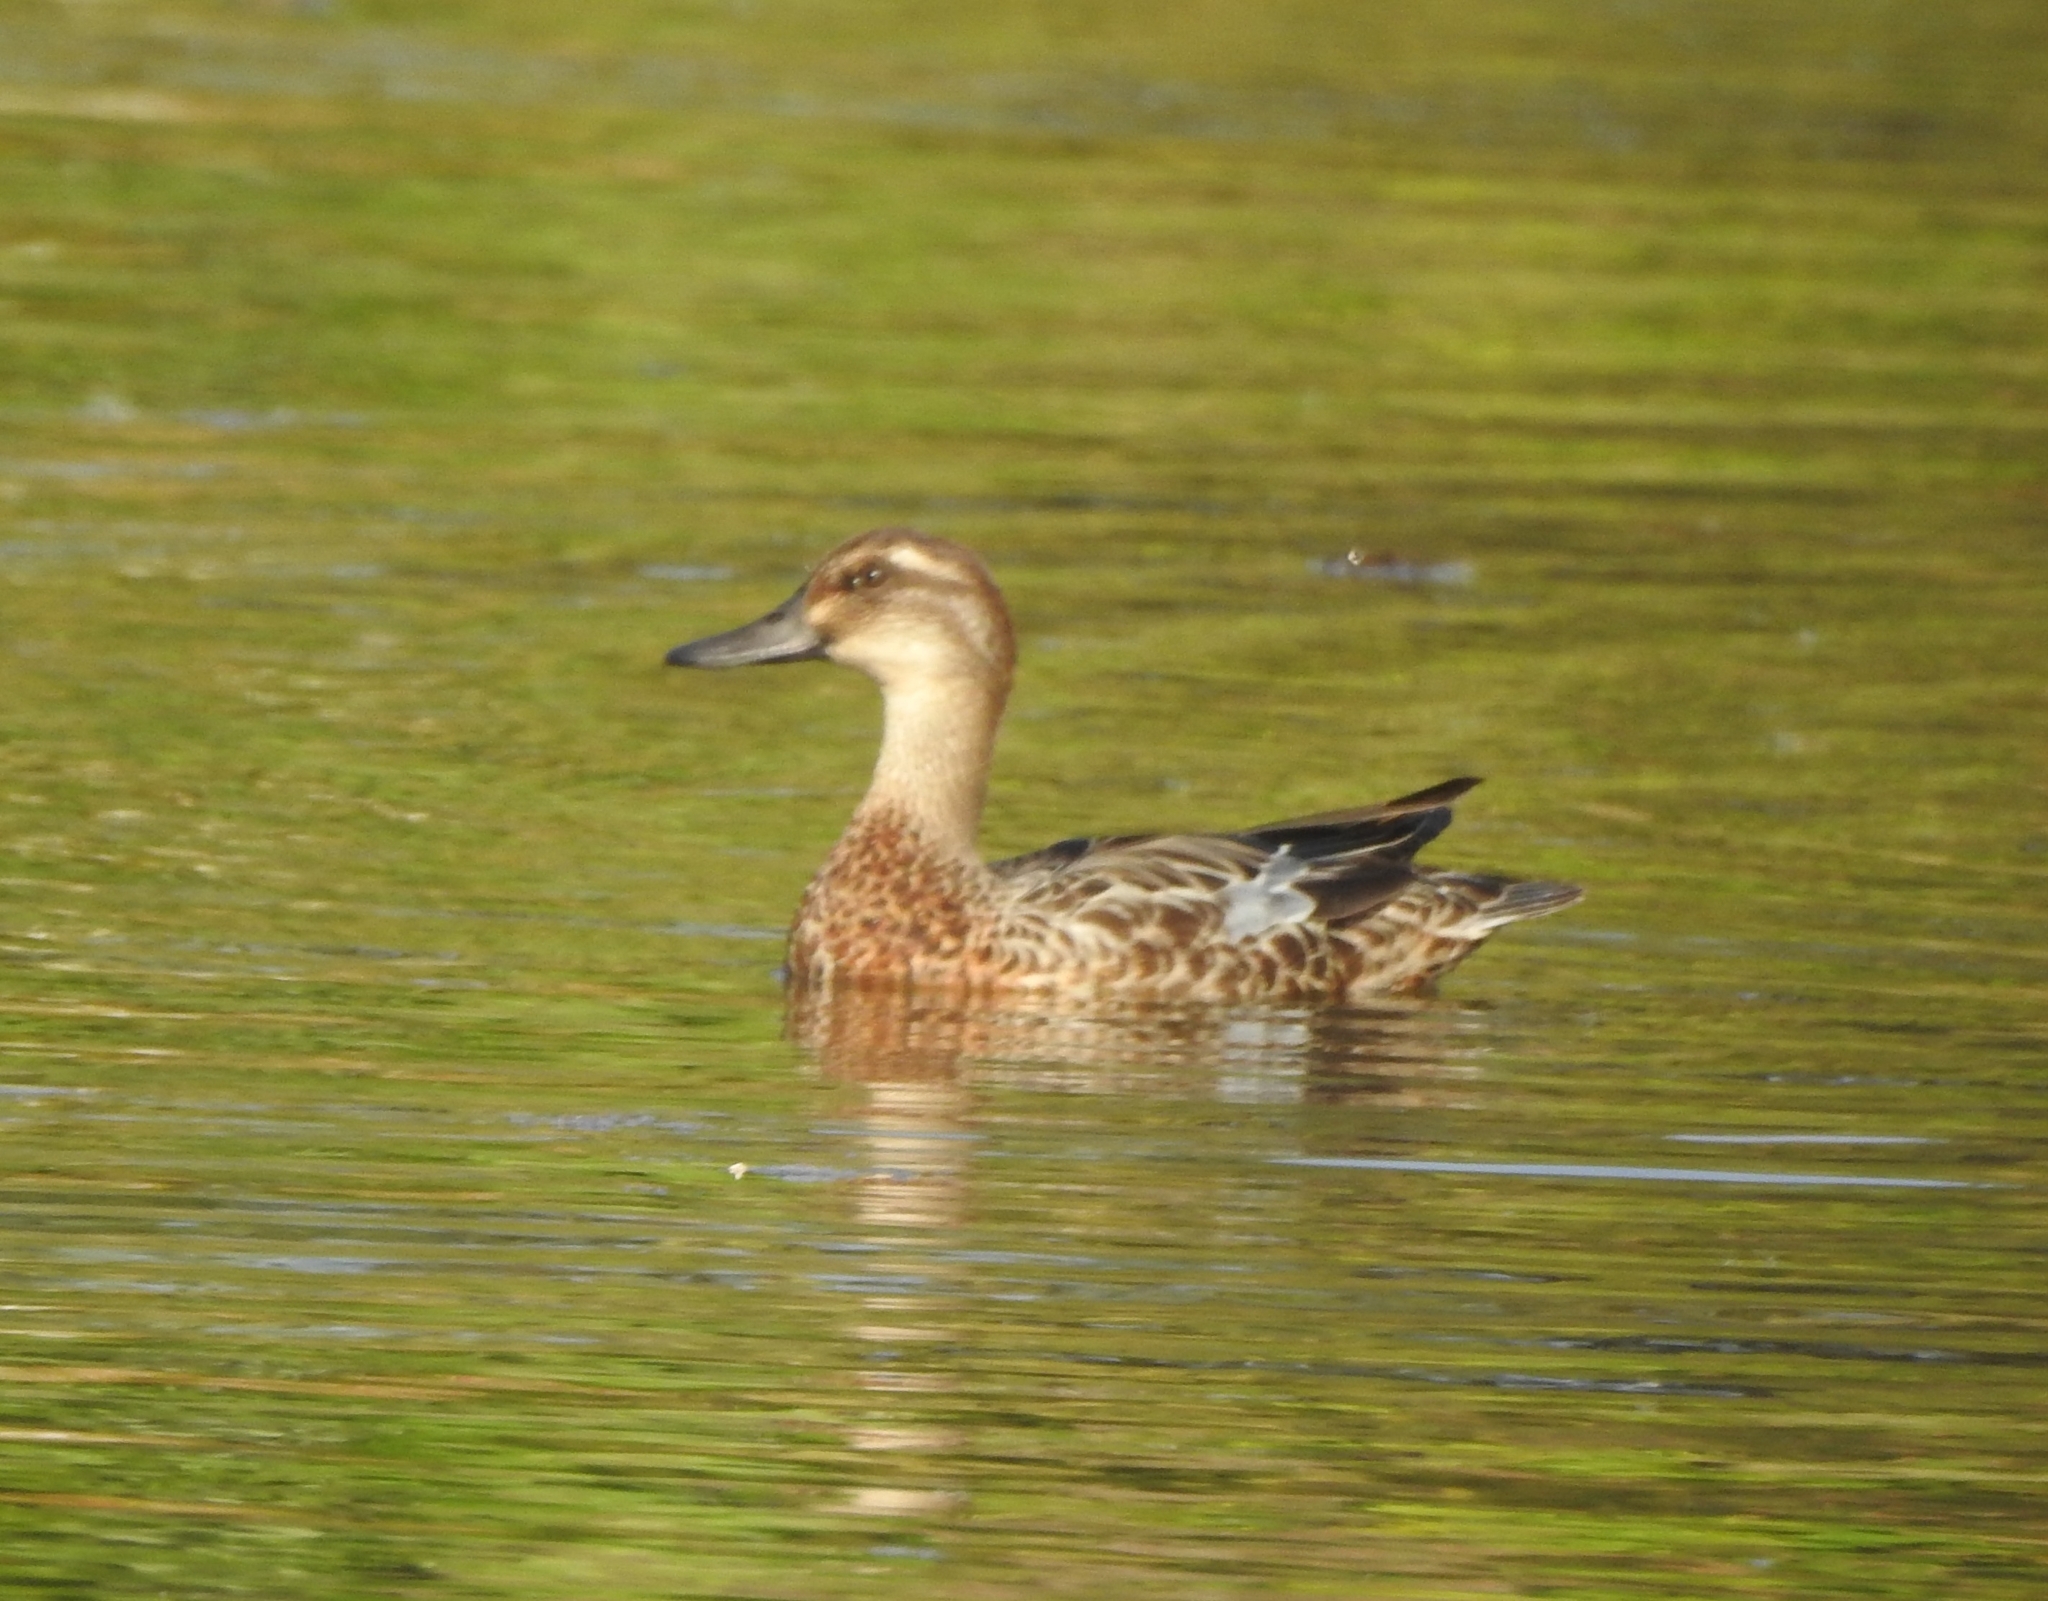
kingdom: Animalia
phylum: Chordata
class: Aves
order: Anseriformes
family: Anatidae
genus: Spatula
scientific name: Spatula querquedula
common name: Garganey
